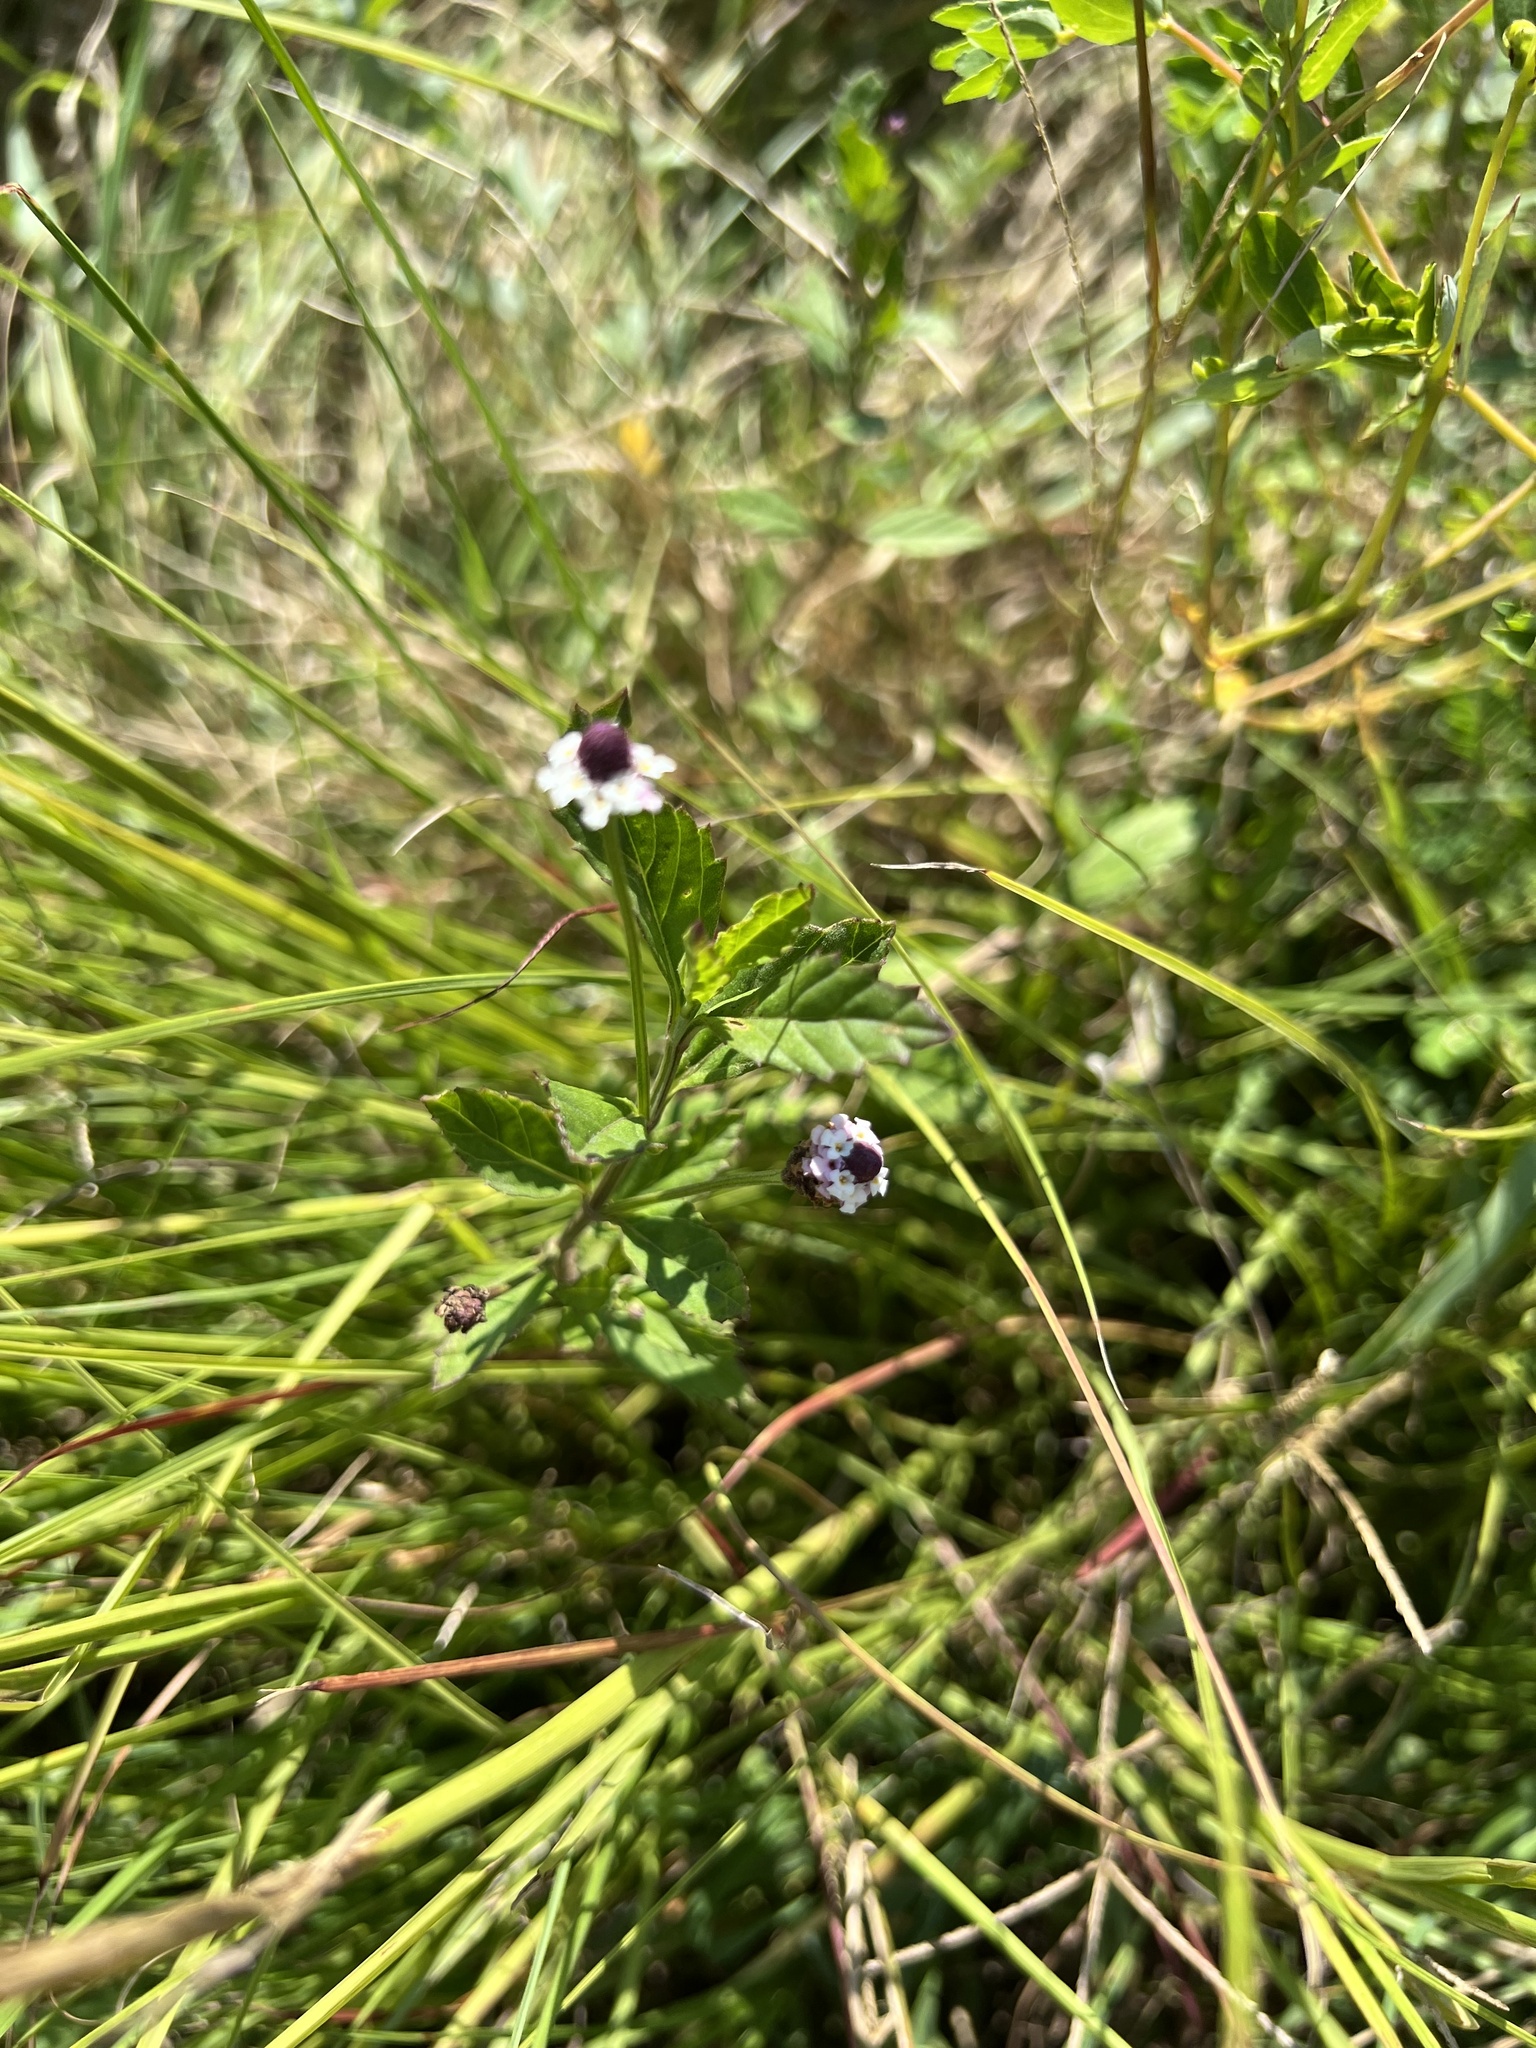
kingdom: Plantae
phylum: Tracheophyta
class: Magnoliopsida
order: Lamiales
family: Verbenaceae
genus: Phyla
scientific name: Phyla lanceolata
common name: Northern fogfruit
